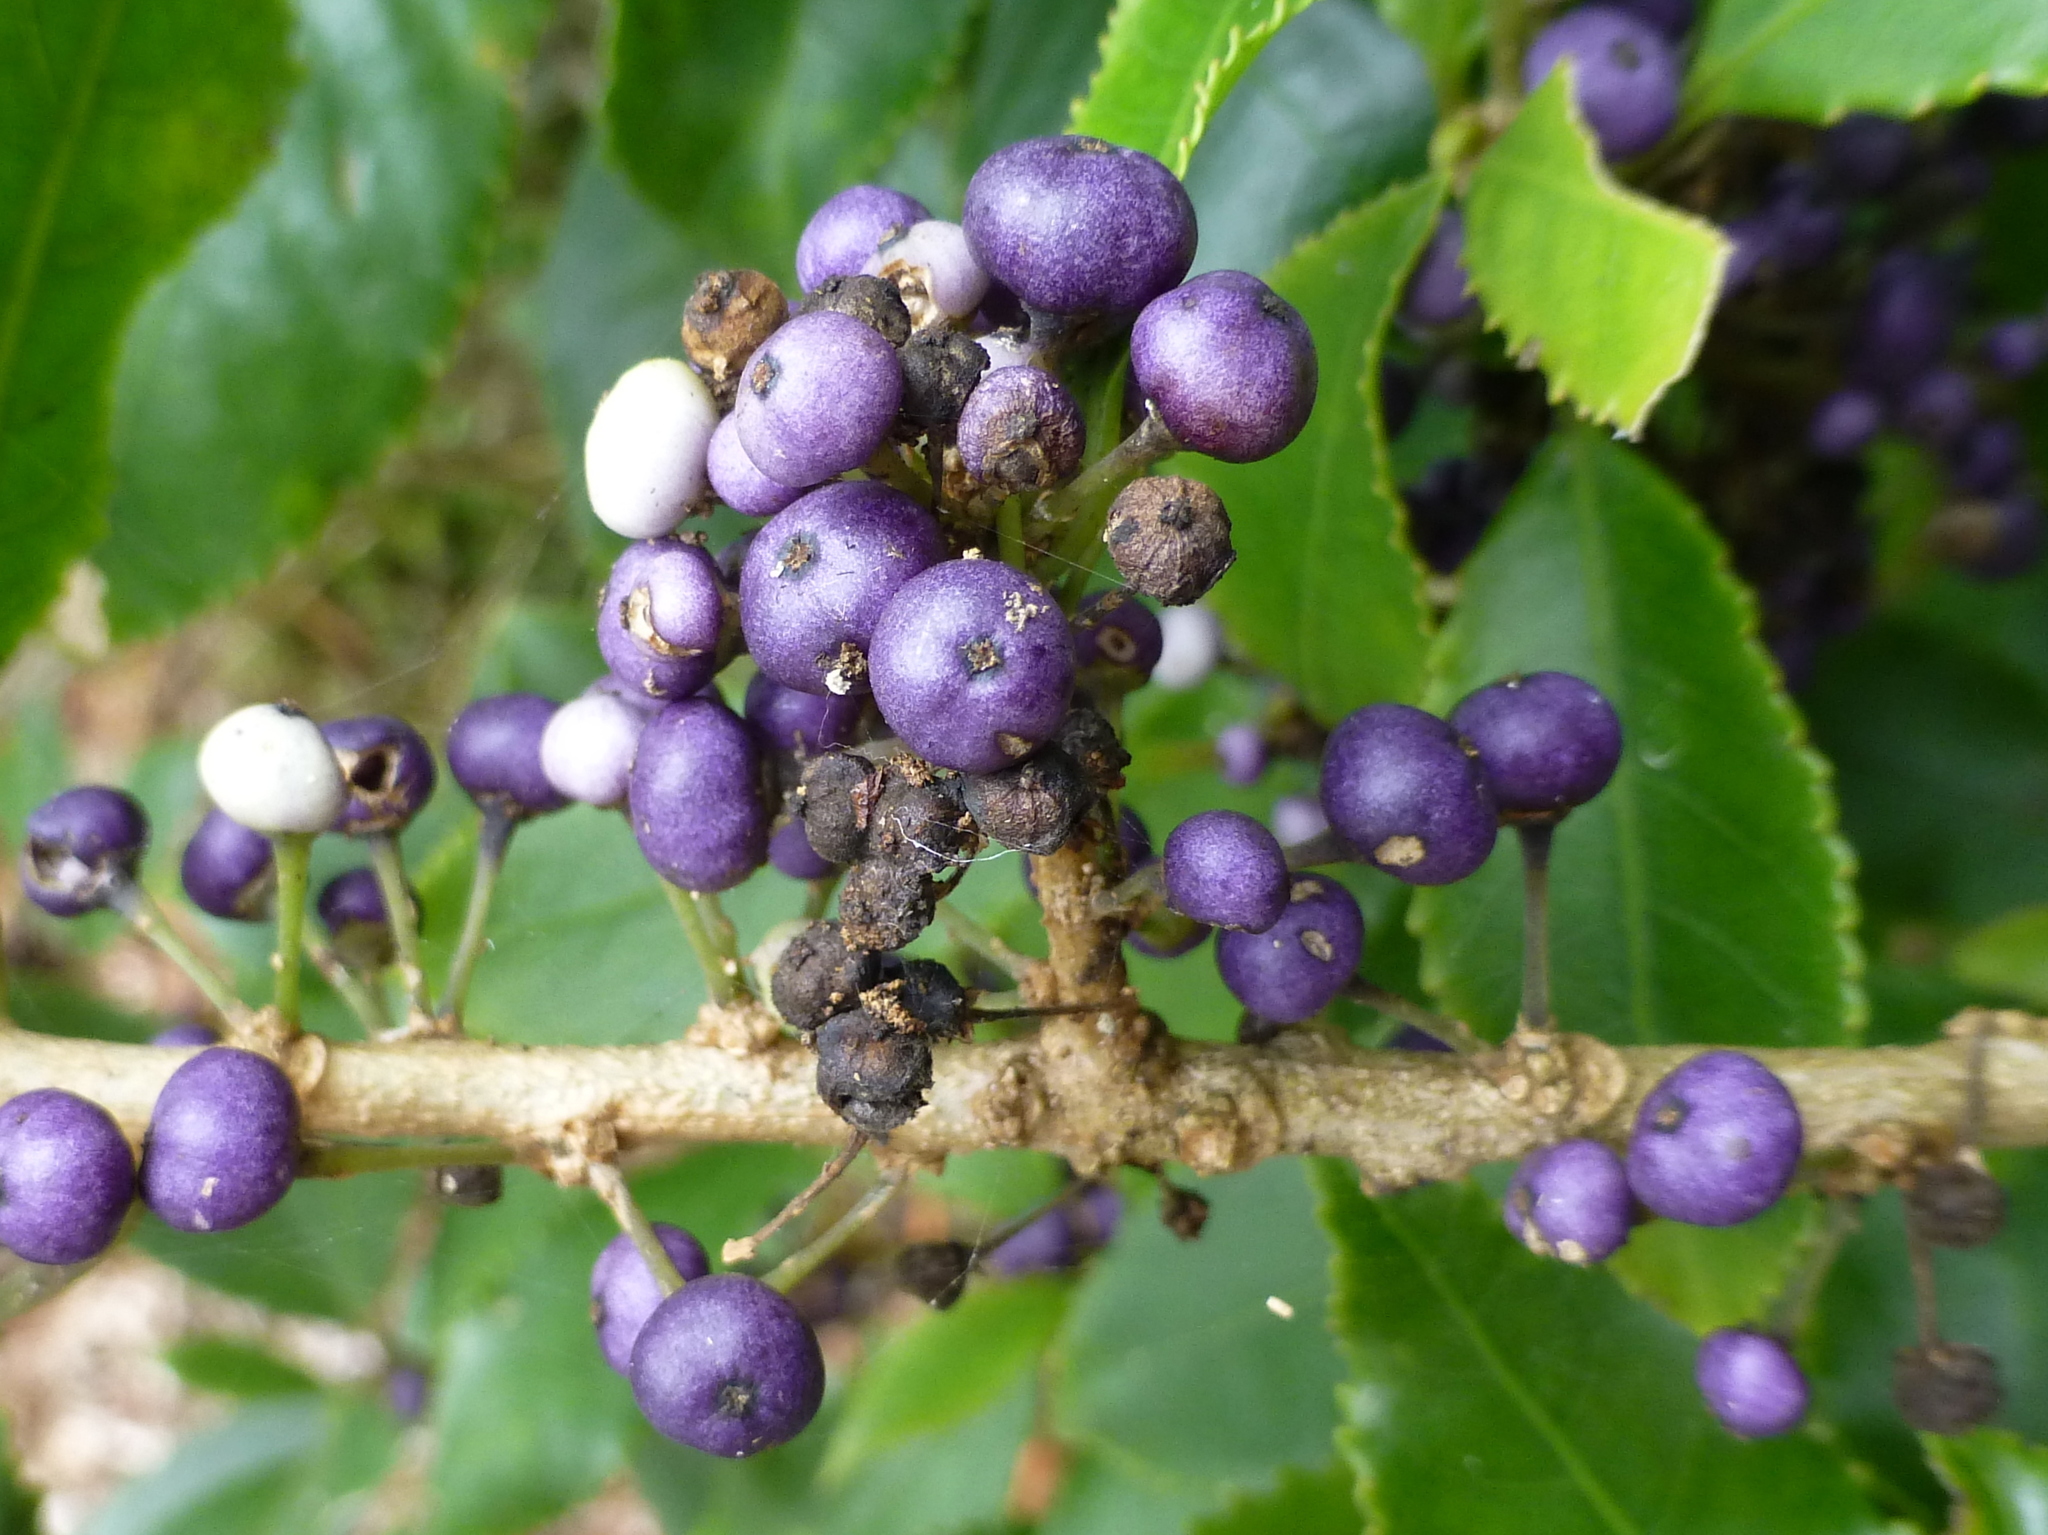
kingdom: Plantae
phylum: Tracheophyta
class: Magnoliopsida
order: Malpighiales
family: Violaceae
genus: Melicytus
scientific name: Melicytus ramiflorus
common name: Mahoe
